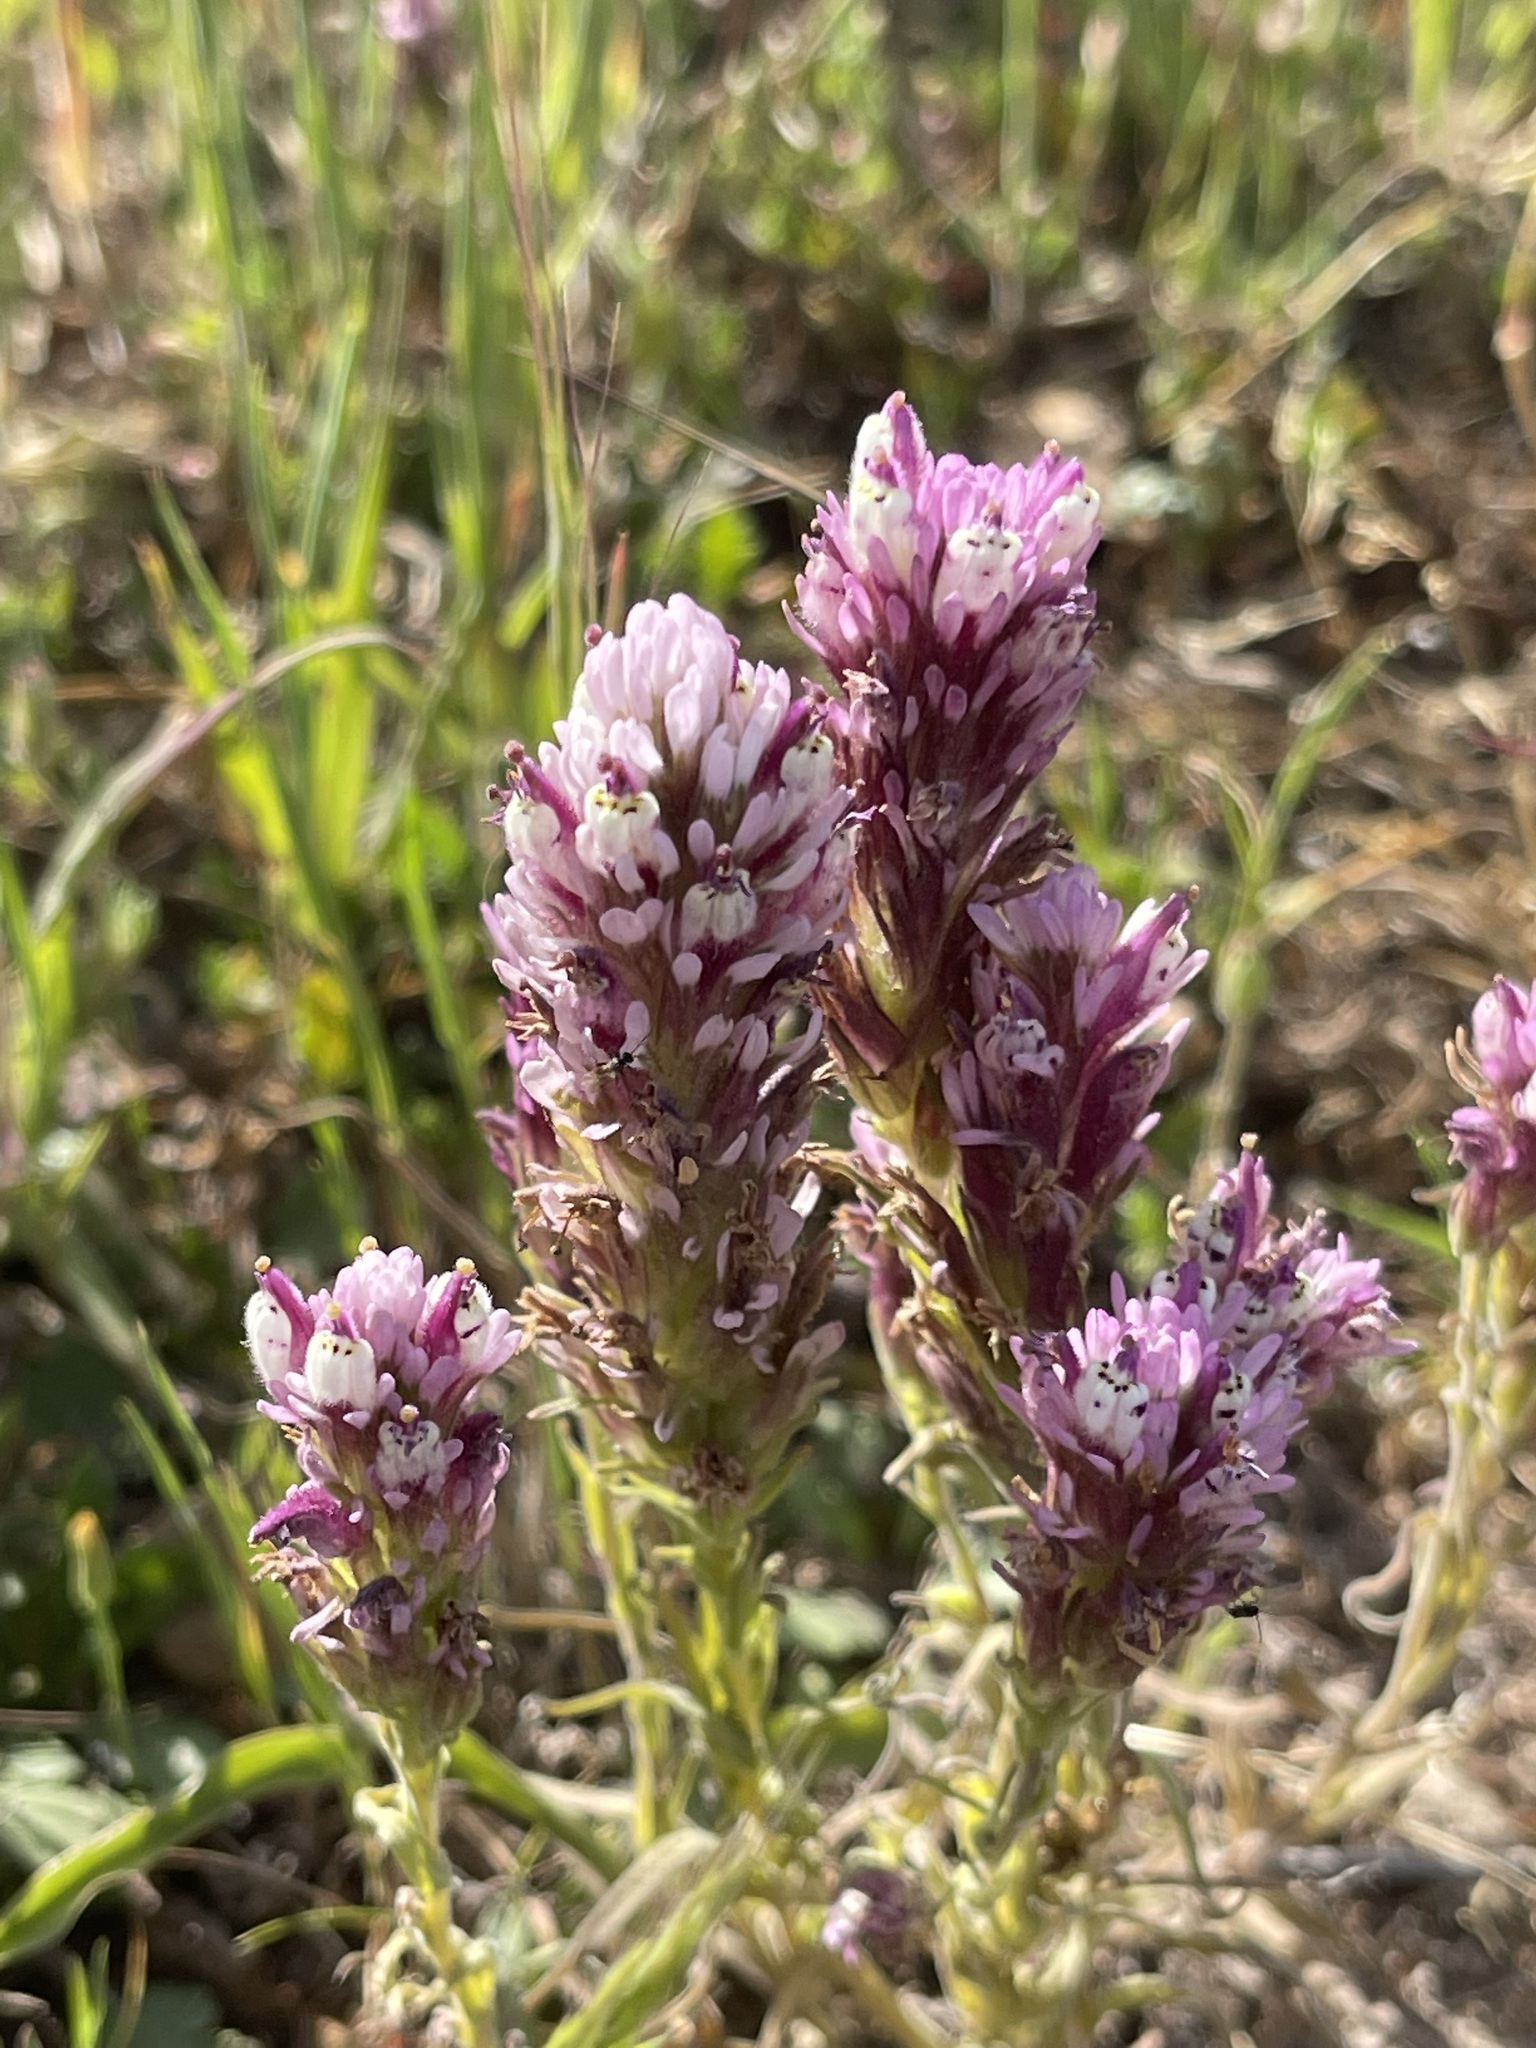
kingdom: Plantae
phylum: Tracheophyta
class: Magnoliopsida
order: Lamiales
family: Orobanchaceae
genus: Castilleja
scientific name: Castilleja densiflora
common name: Dense-flower indian paintbrush
